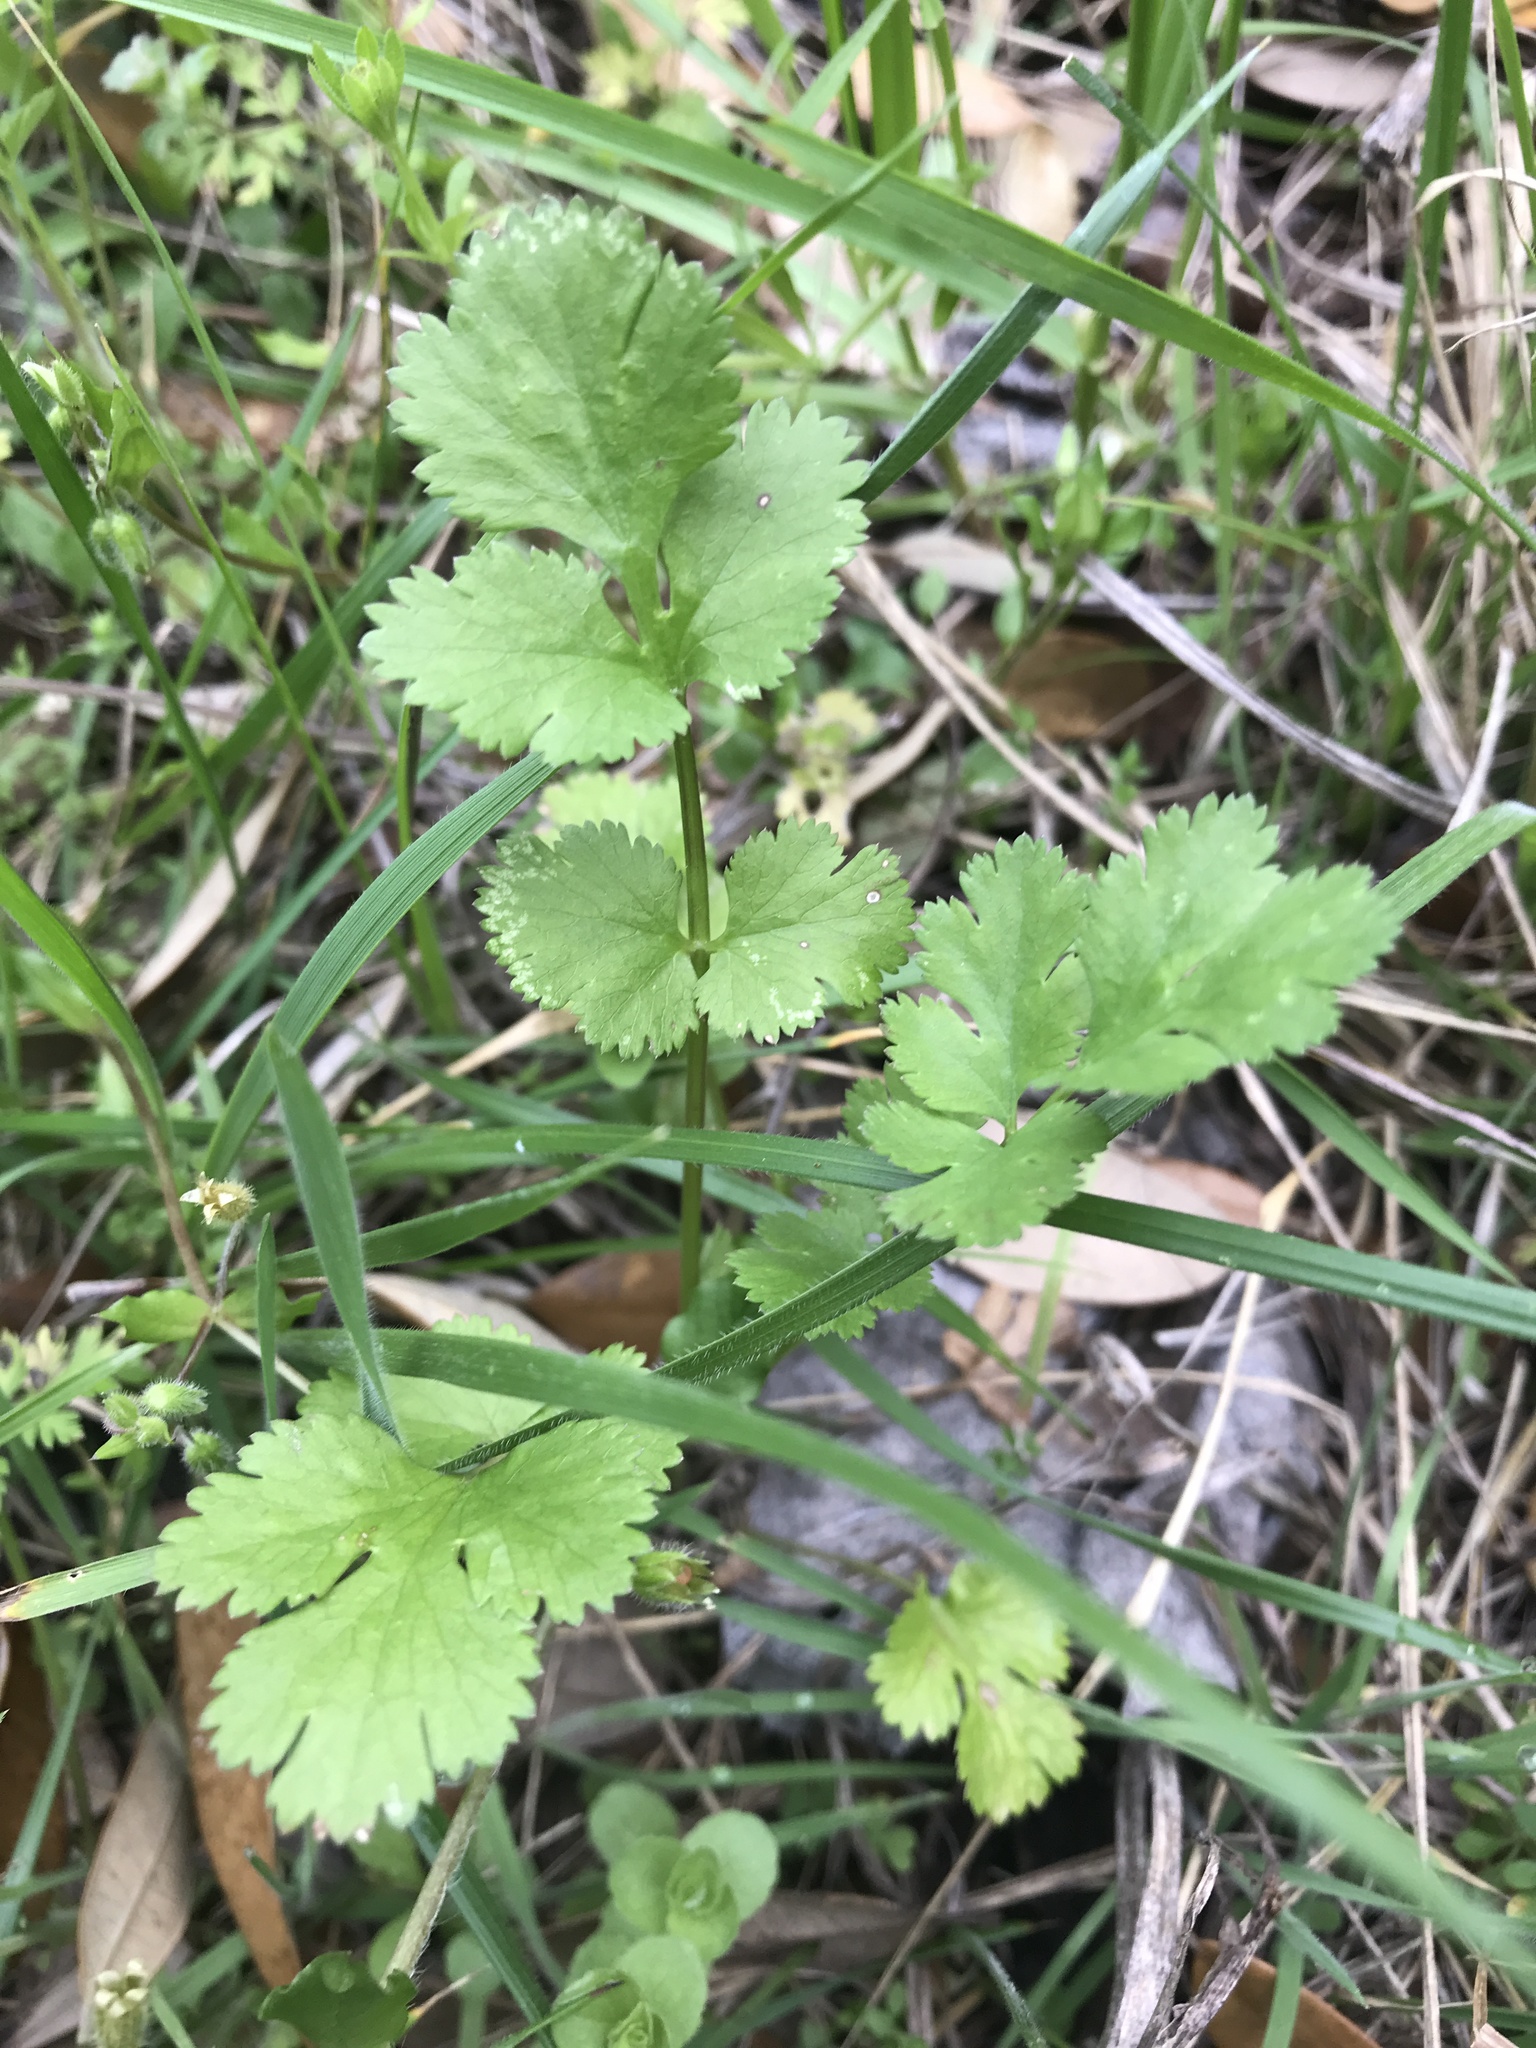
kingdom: Plantae
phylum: Tracheophyta
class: Magnoliopsida
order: Apiales
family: Apiaceae
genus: Coriandrum
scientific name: Coriandrum sativum
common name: Coriander
